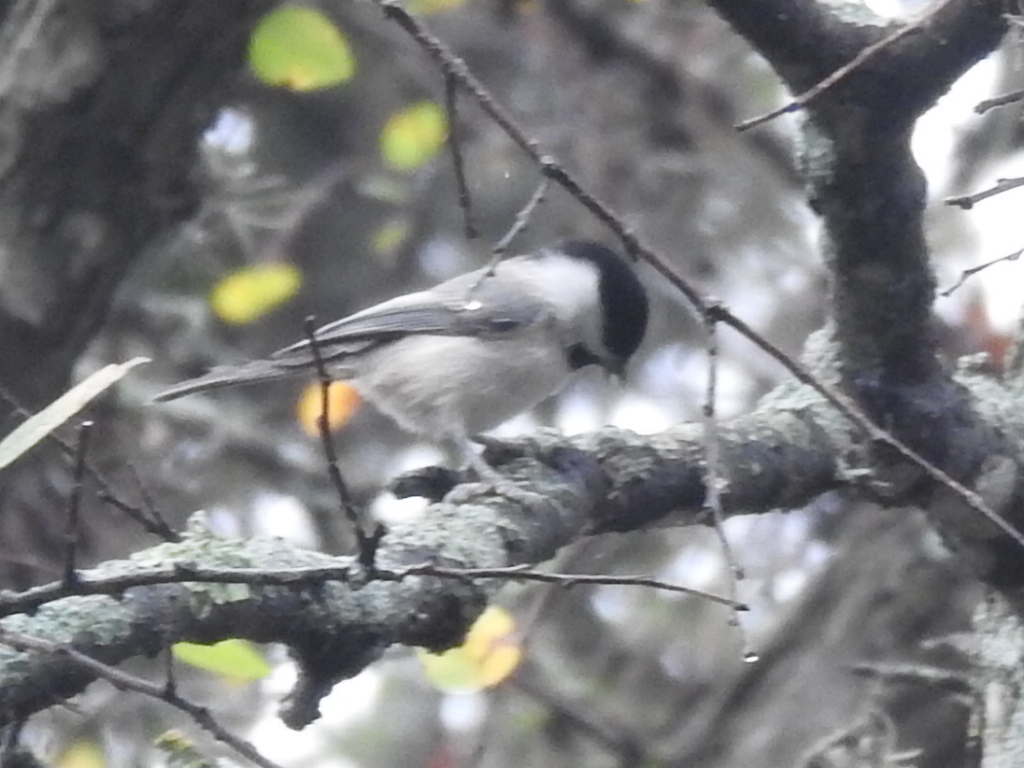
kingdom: Animalia
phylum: Chordata
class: Aves
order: Passeriformes
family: Paridae
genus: Poecile
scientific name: Poecile carolinensis
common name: Carolina chickadee
